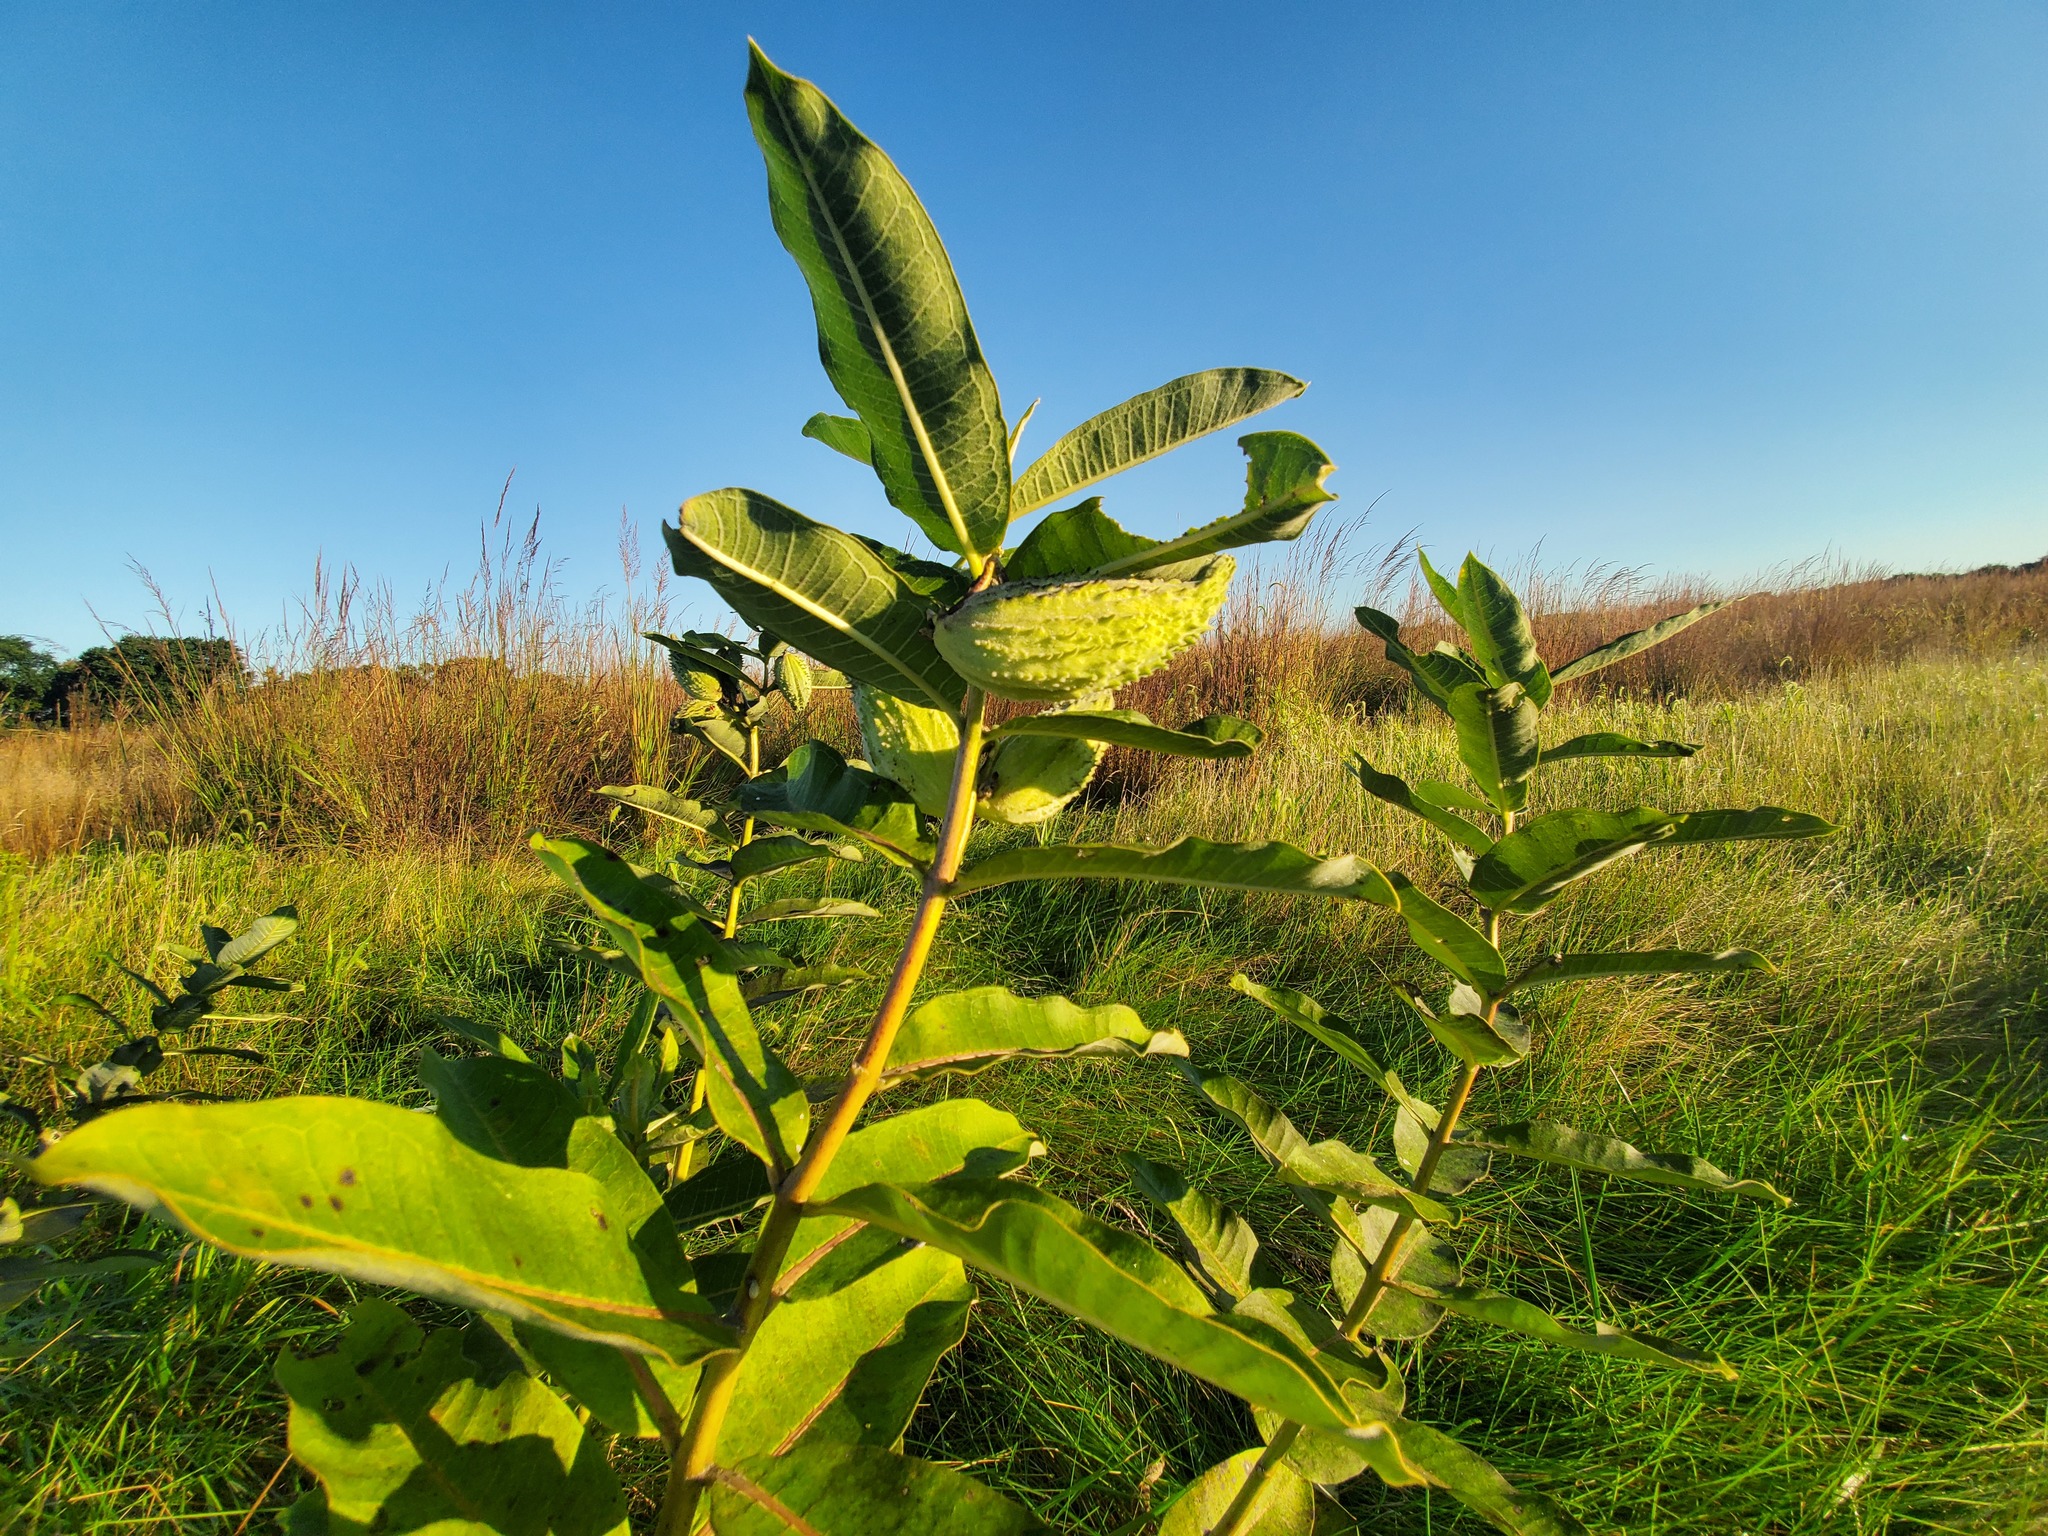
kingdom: Plantae
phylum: Tracheophyta
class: Magnoliopsida
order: Gentianales
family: Apocynaceae
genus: Asclepias
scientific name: Asclepias syriaca
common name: Common milkweed
